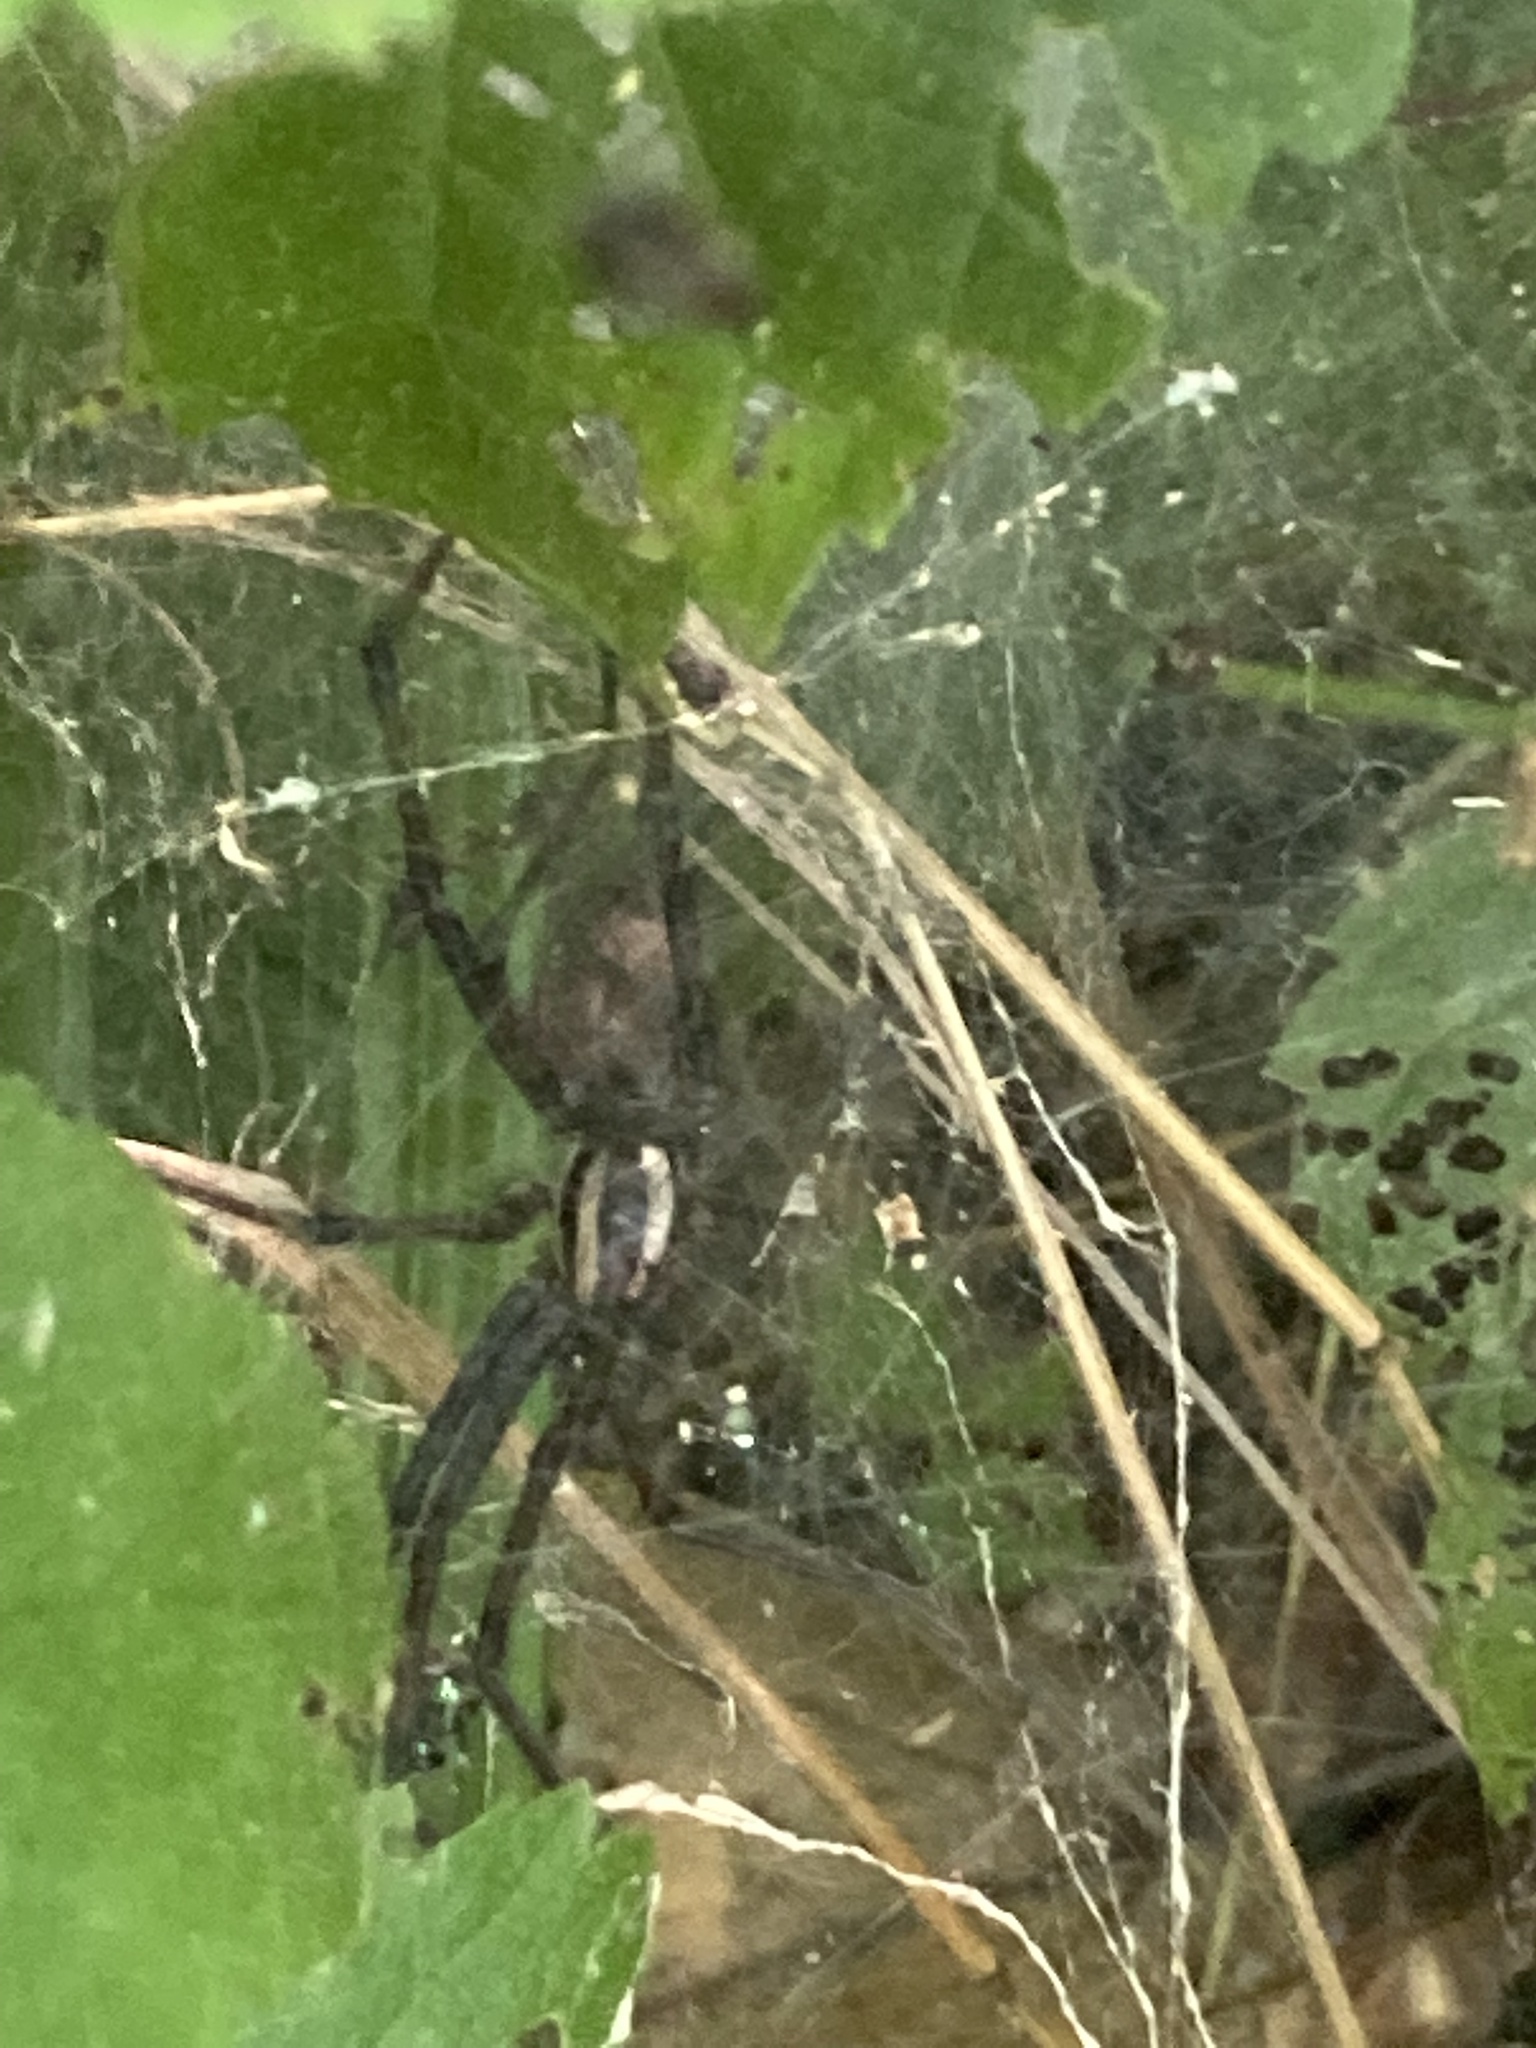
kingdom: Animalia
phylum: Arthropoda
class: Arachnida
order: Araneae
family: Agelenidae
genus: Agelenopsis
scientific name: Agelenopsis
